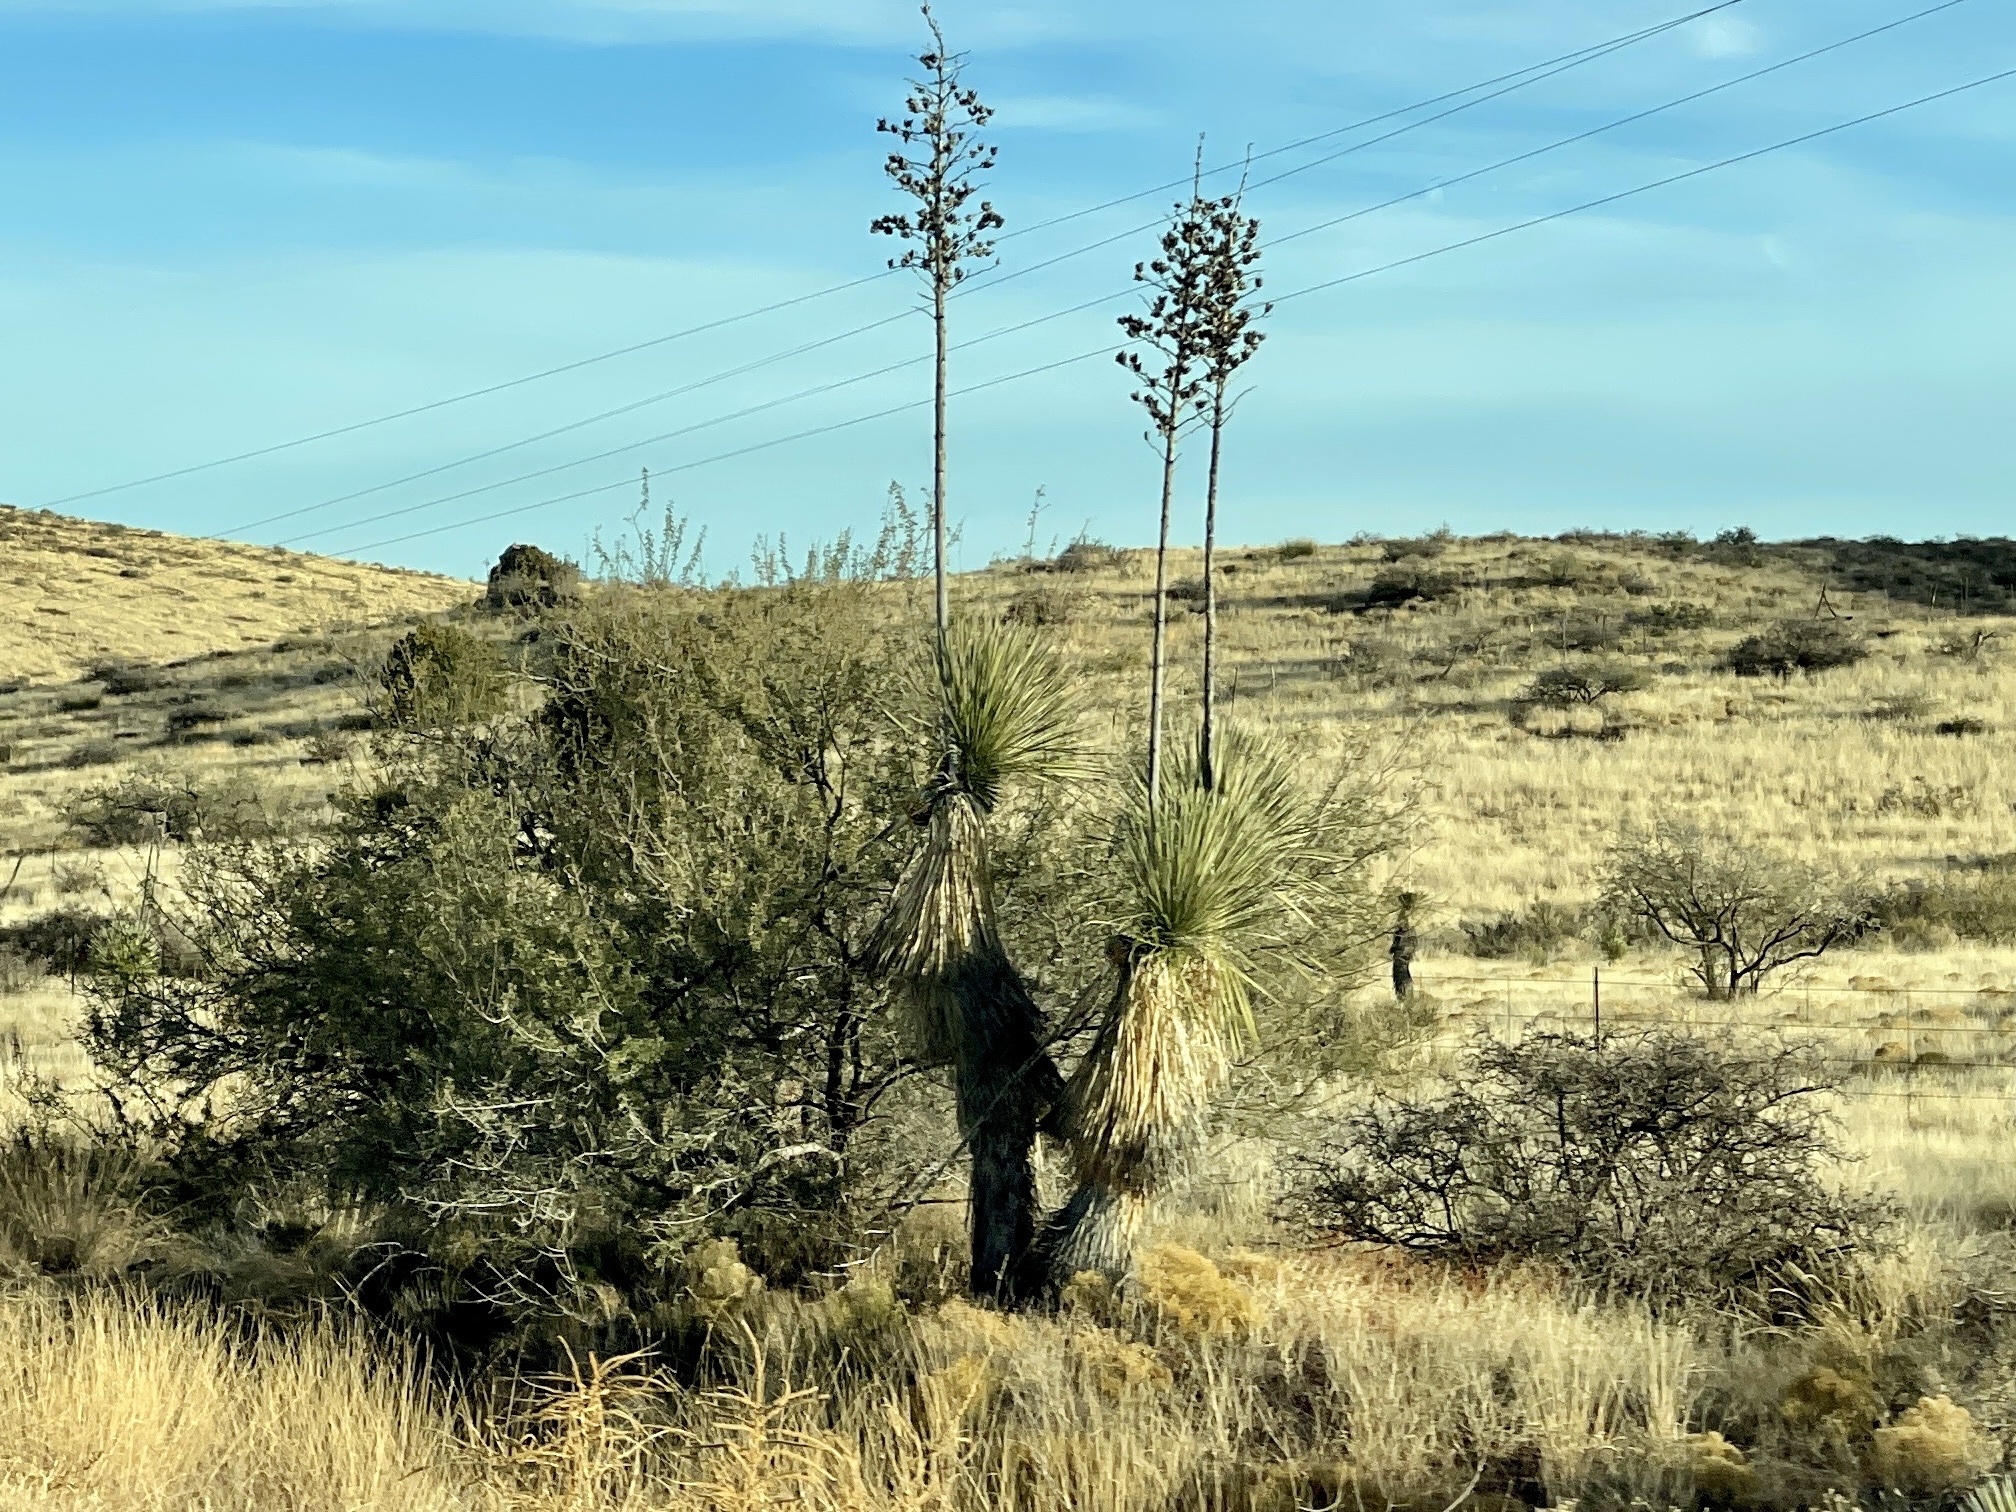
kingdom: Plantae
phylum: Tracheophyta
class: Liliopsida
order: Asparagales
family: Asparagaceae
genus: Yucca
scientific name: Yucca elata
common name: Palmella
